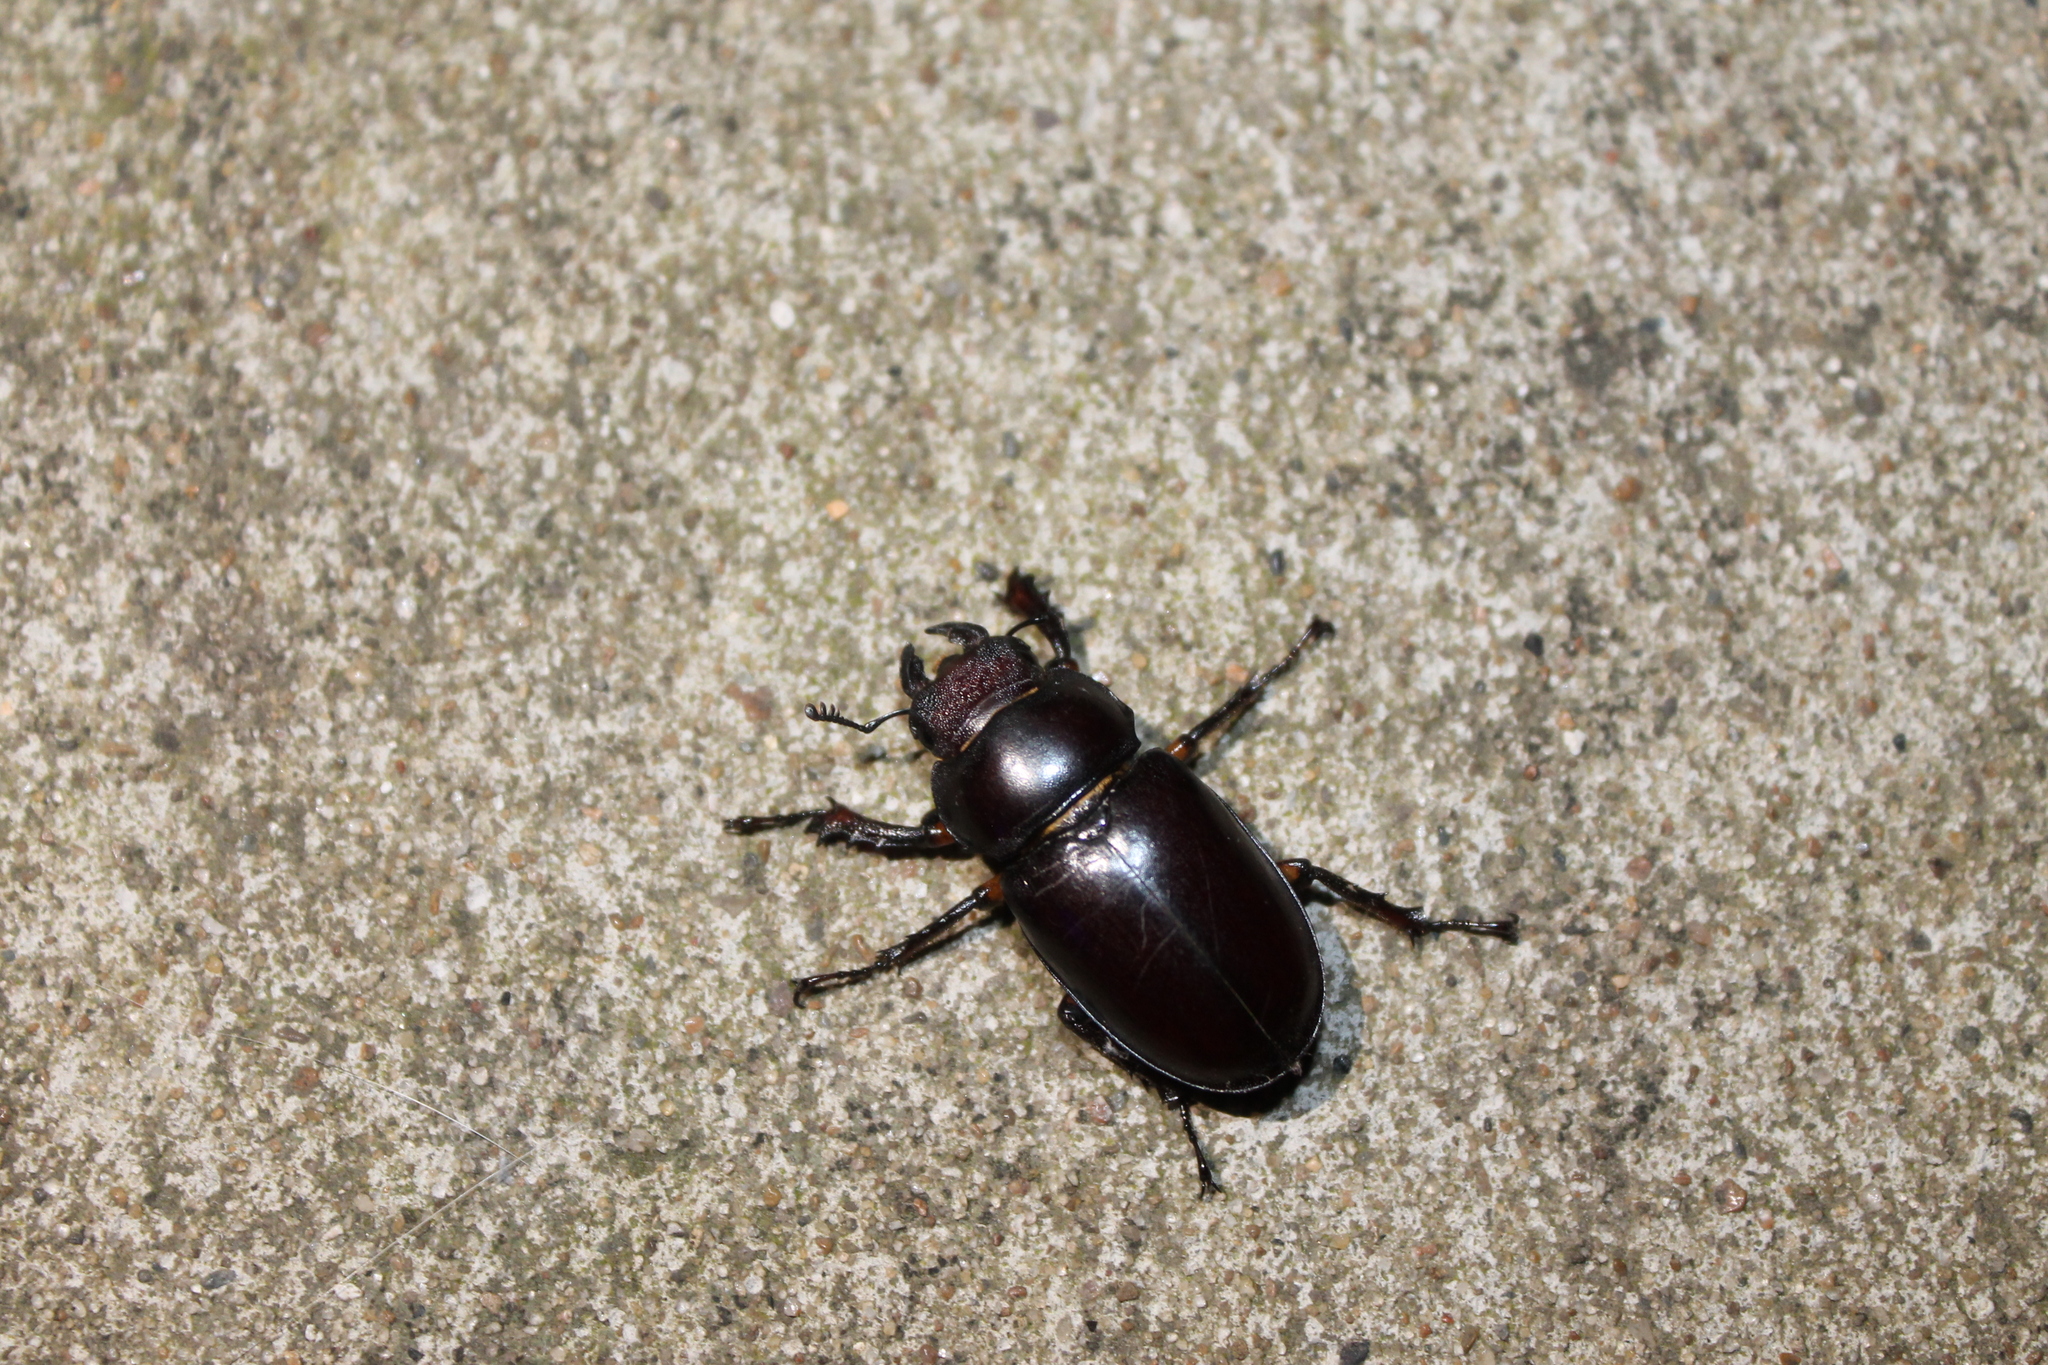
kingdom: Animalia
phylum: Arthropoda
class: Insecta
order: Coleoptera
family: Lucanidae
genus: Lucanus
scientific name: Lucanus capreolus
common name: Stag beetle
